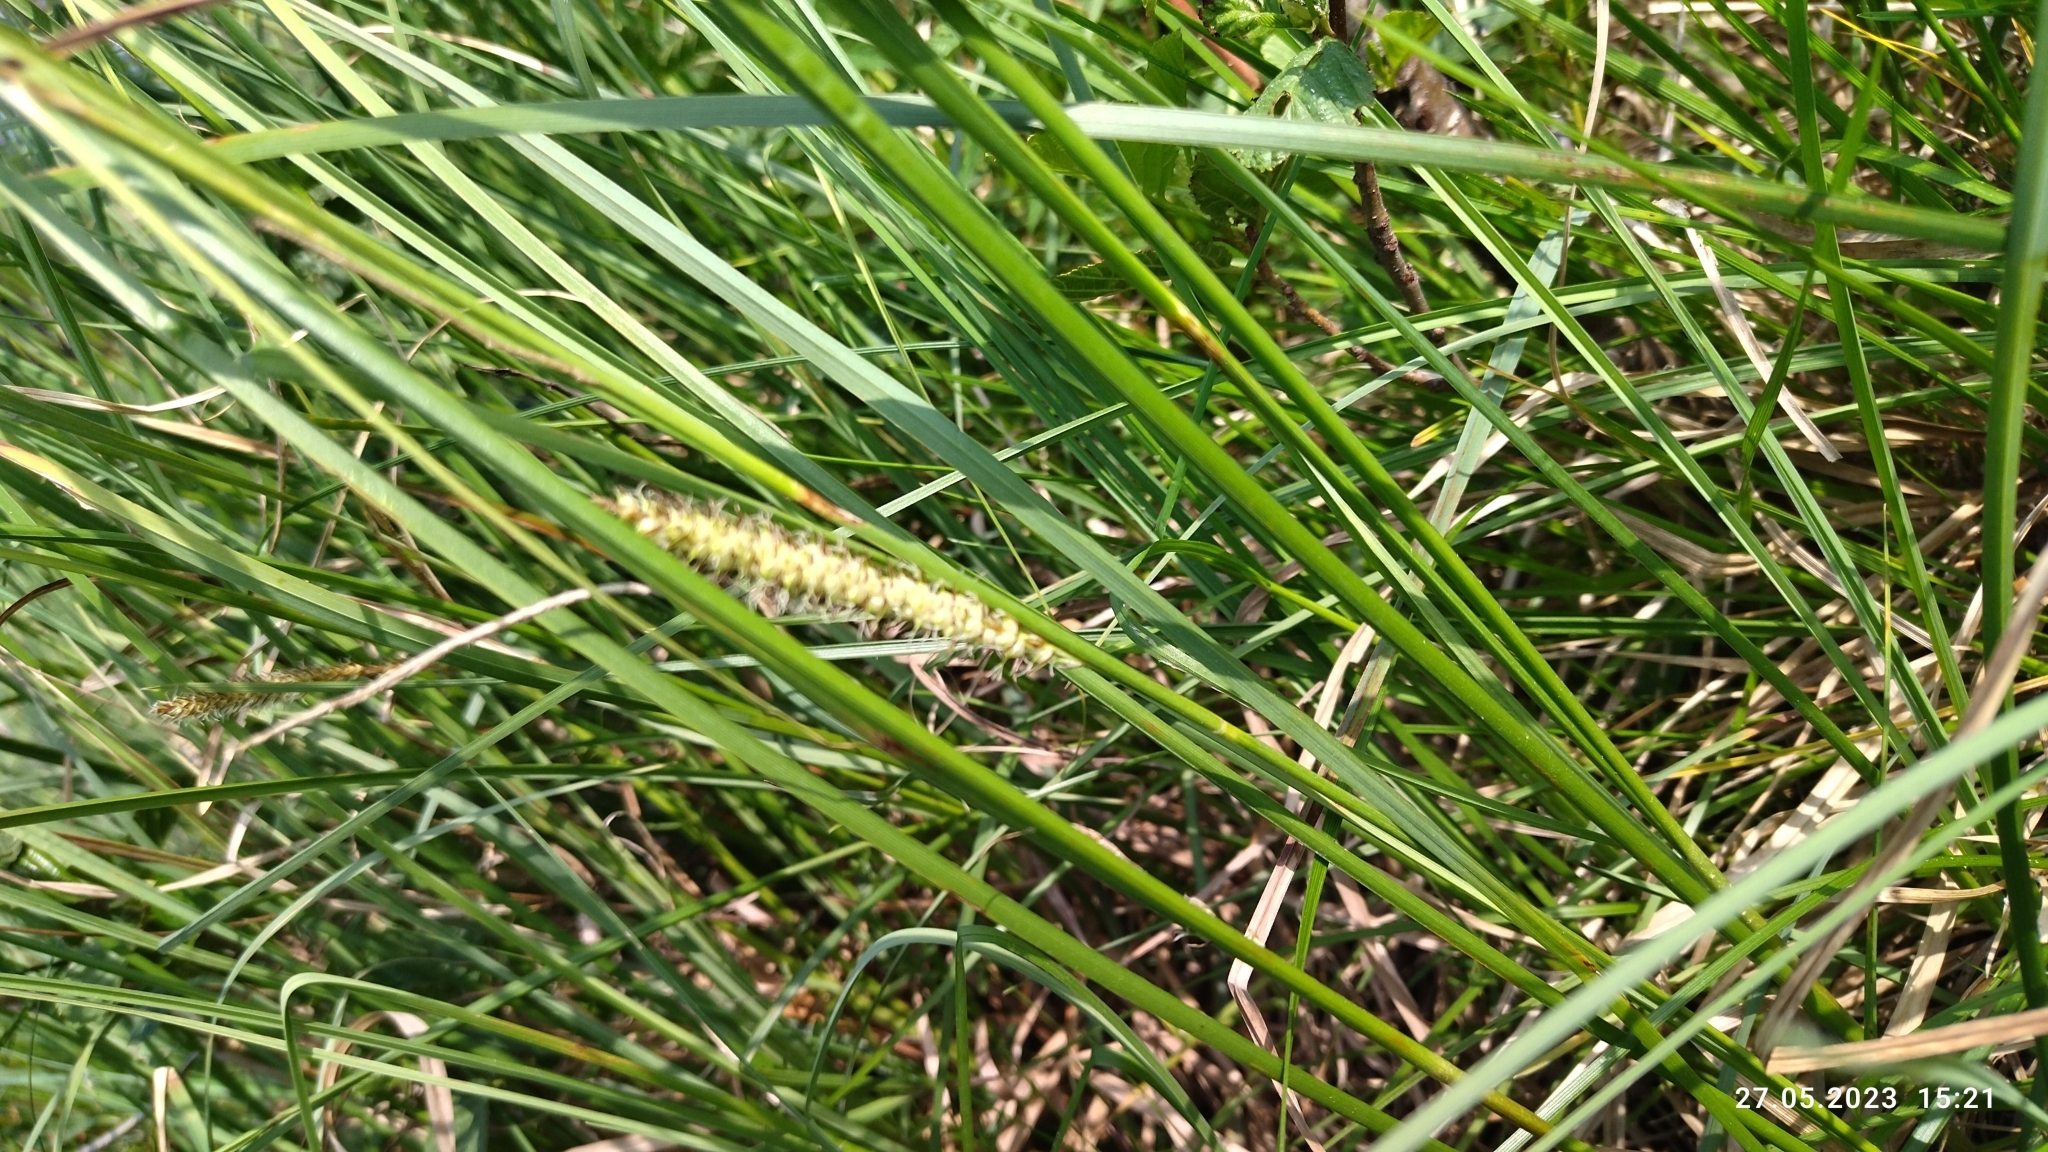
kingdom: Plantae
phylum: Tracheophyta
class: Liliopsida
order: Poales
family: Cyperaceae
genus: Carex
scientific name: Carex rostrata
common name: Bottle sedge
